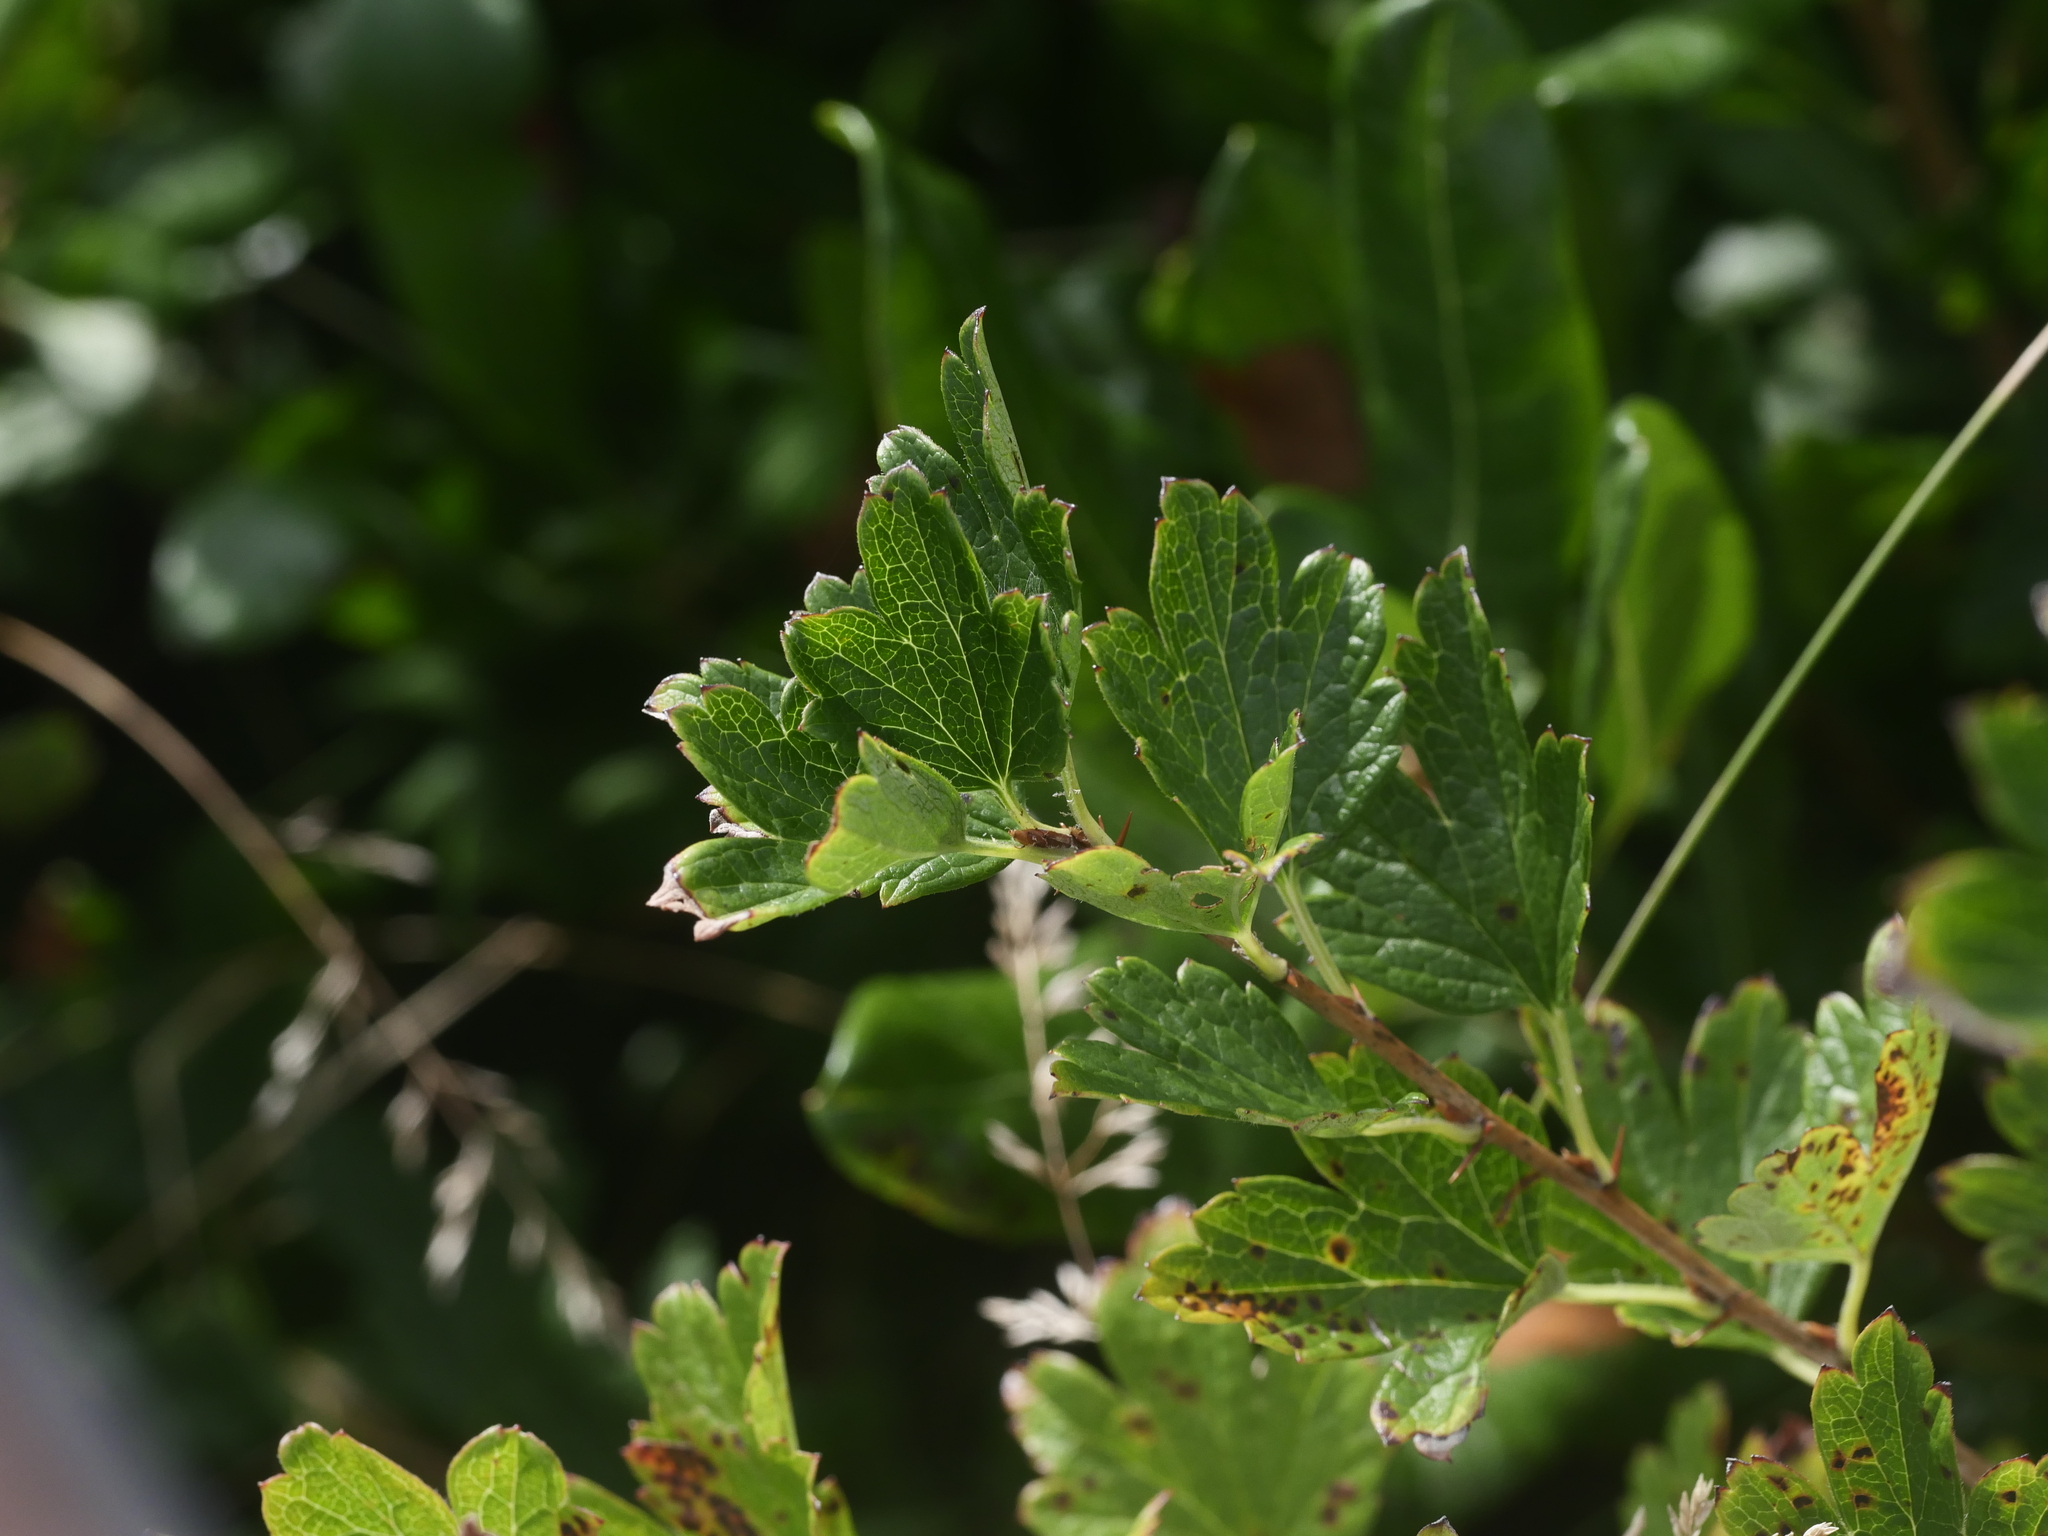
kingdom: Plantae
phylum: Tracheophyta
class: Magnoliopsida
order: Saxifragales
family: Grossulariaceae
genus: Ribes
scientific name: Ribes hirtellum
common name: Hairy gooseberry
